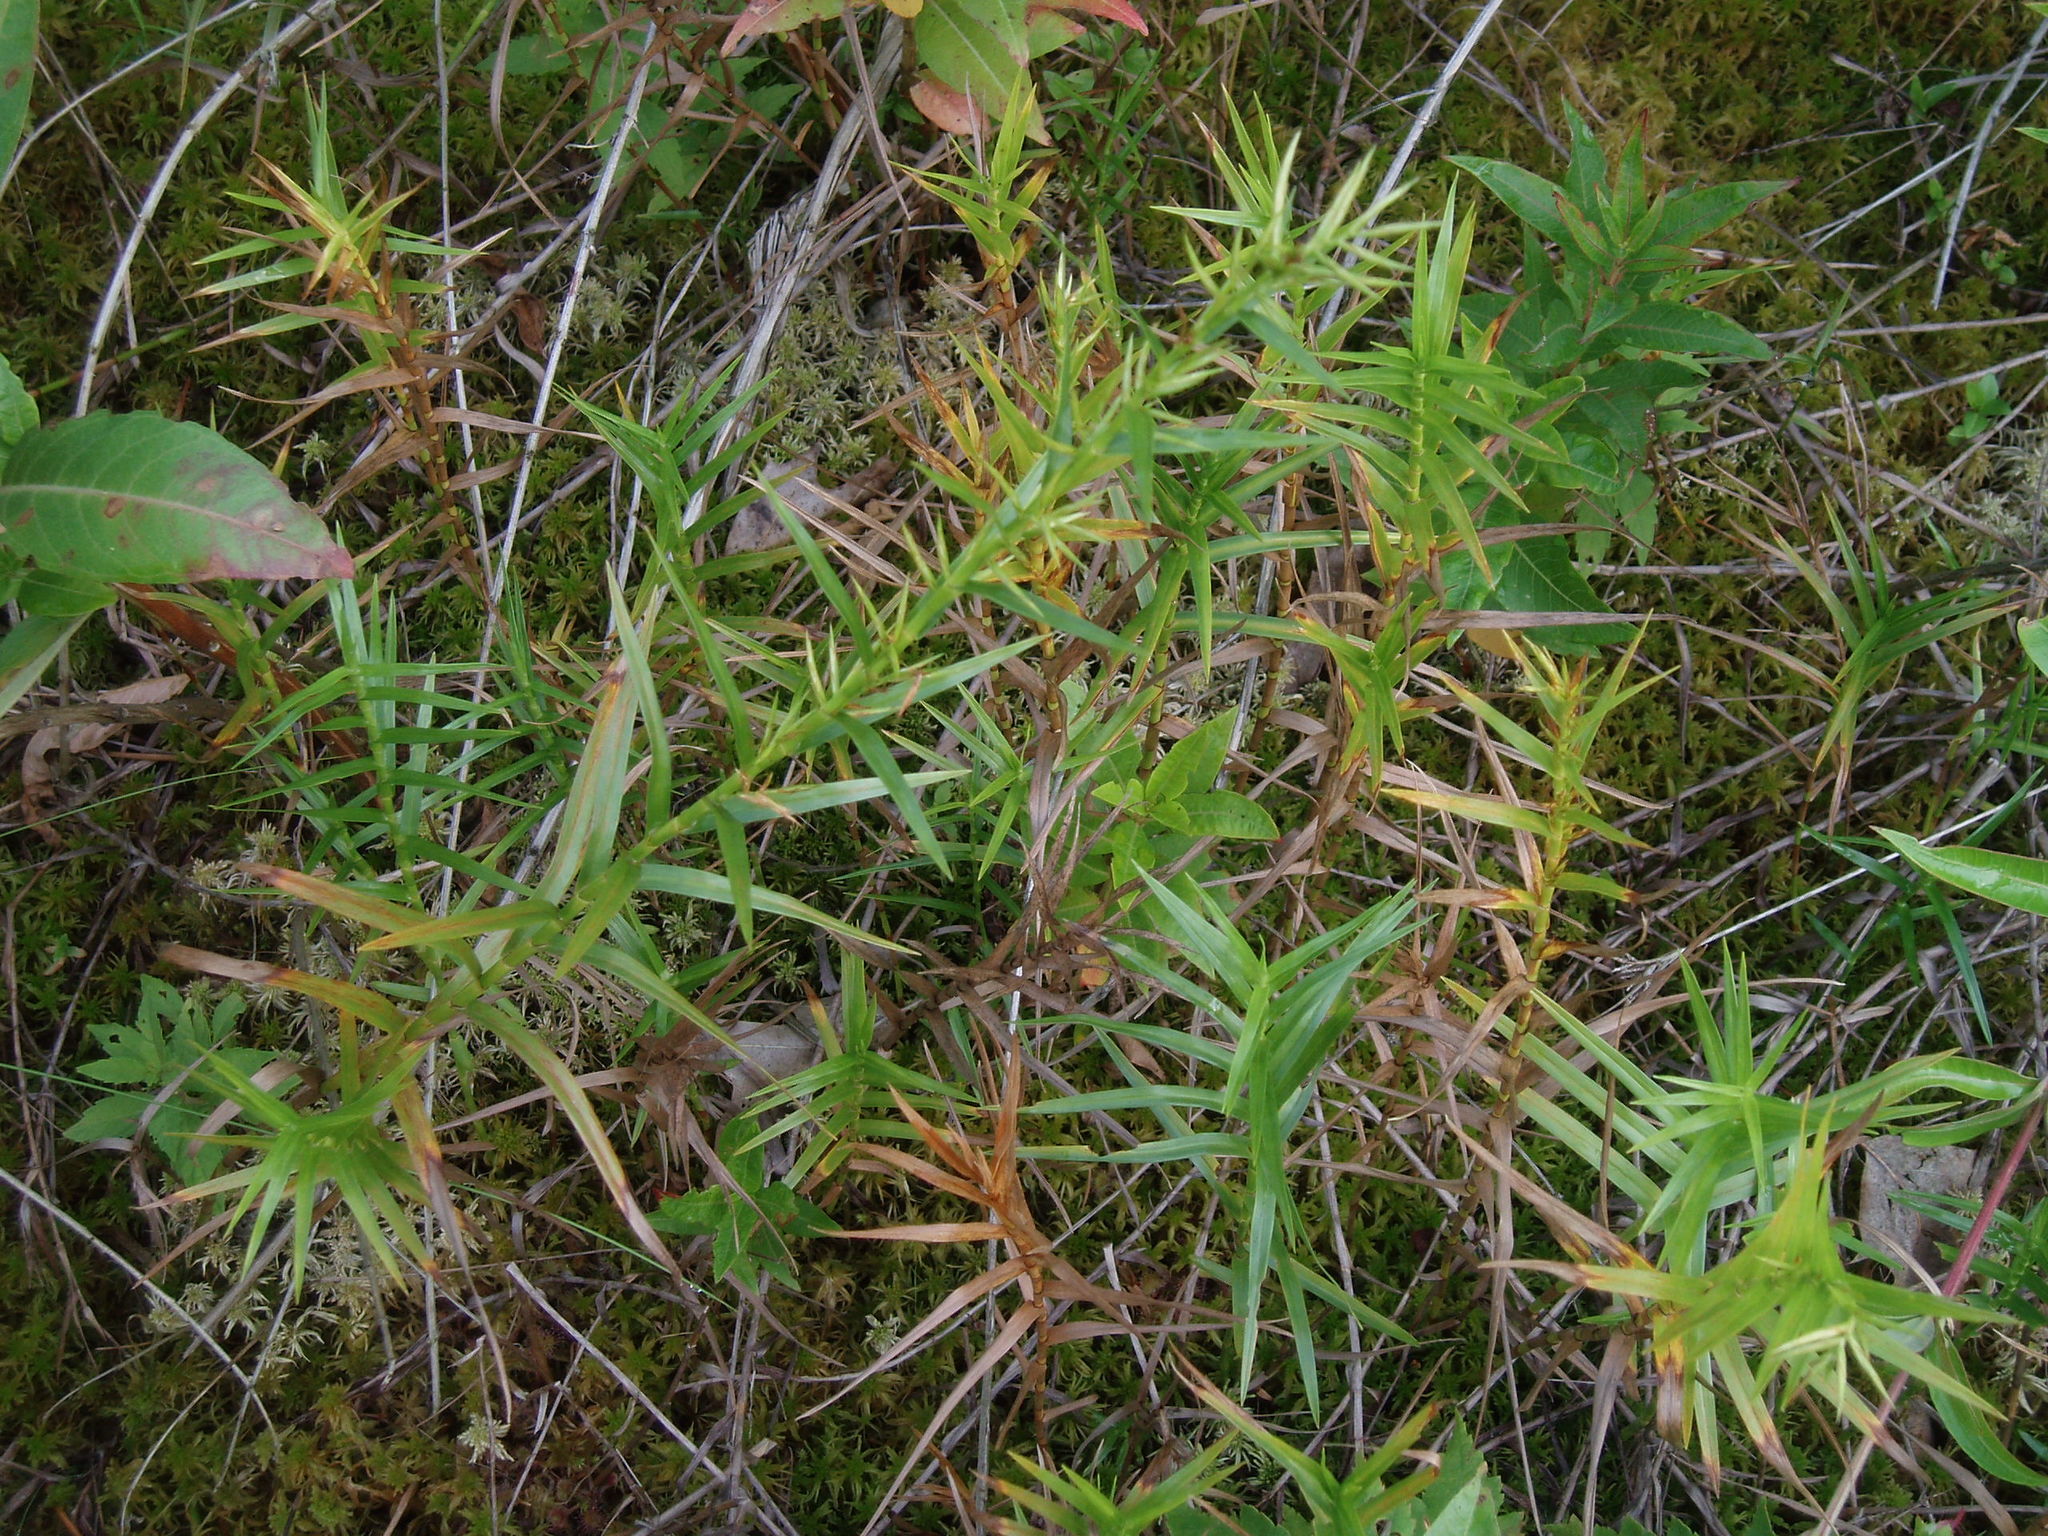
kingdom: Plantae
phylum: Tracheophyta
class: Liliopsida
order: Poales
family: Cyperaceae
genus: Dulichium
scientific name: Dulichium arundinaceum
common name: Three-way sedge
